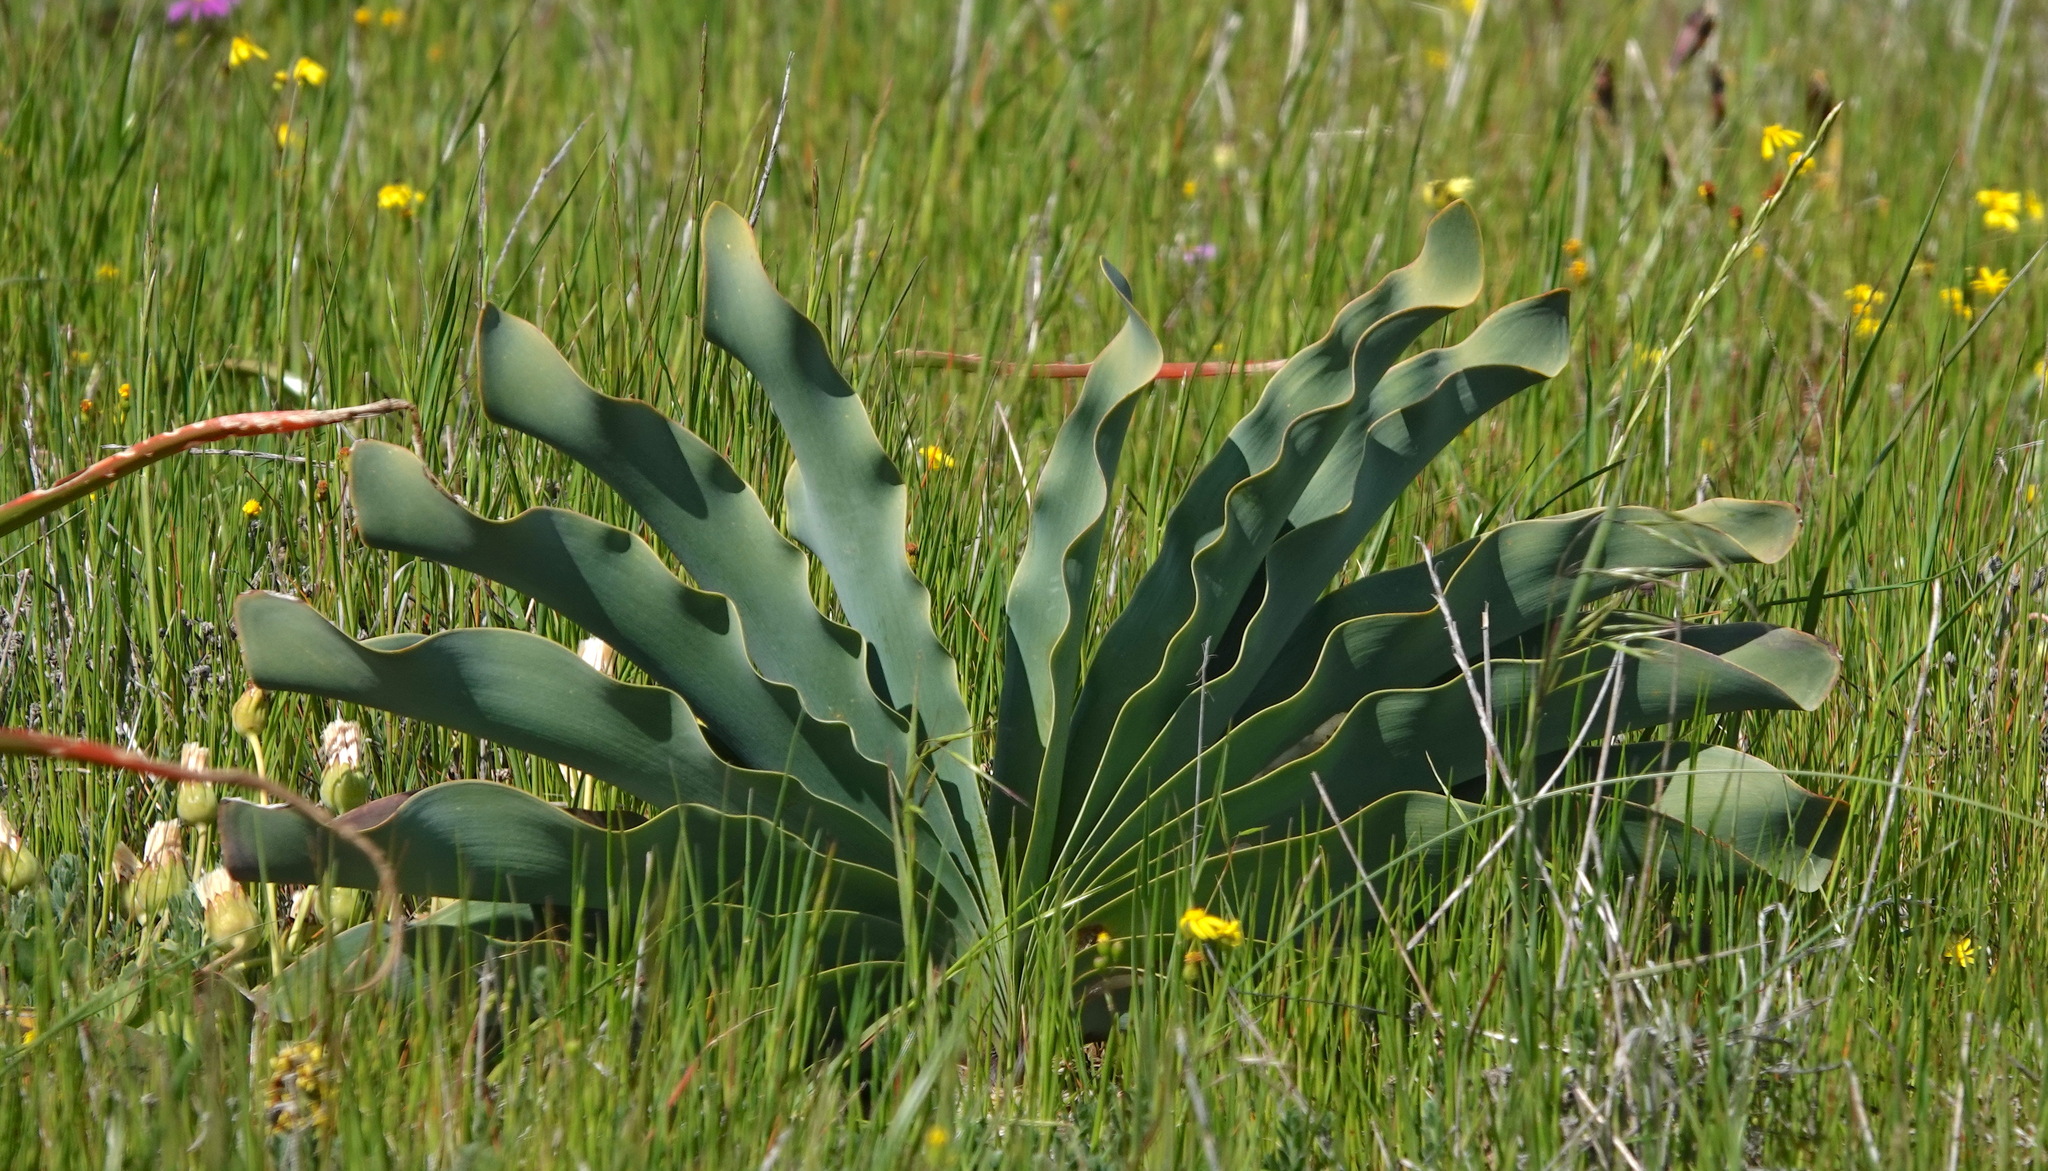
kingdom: Plantae
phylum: Tracheophyta
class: Liliopsida
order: Asparagales
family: Amaryllidaceae
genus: Boophone
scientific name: Boophone haemanthoides
